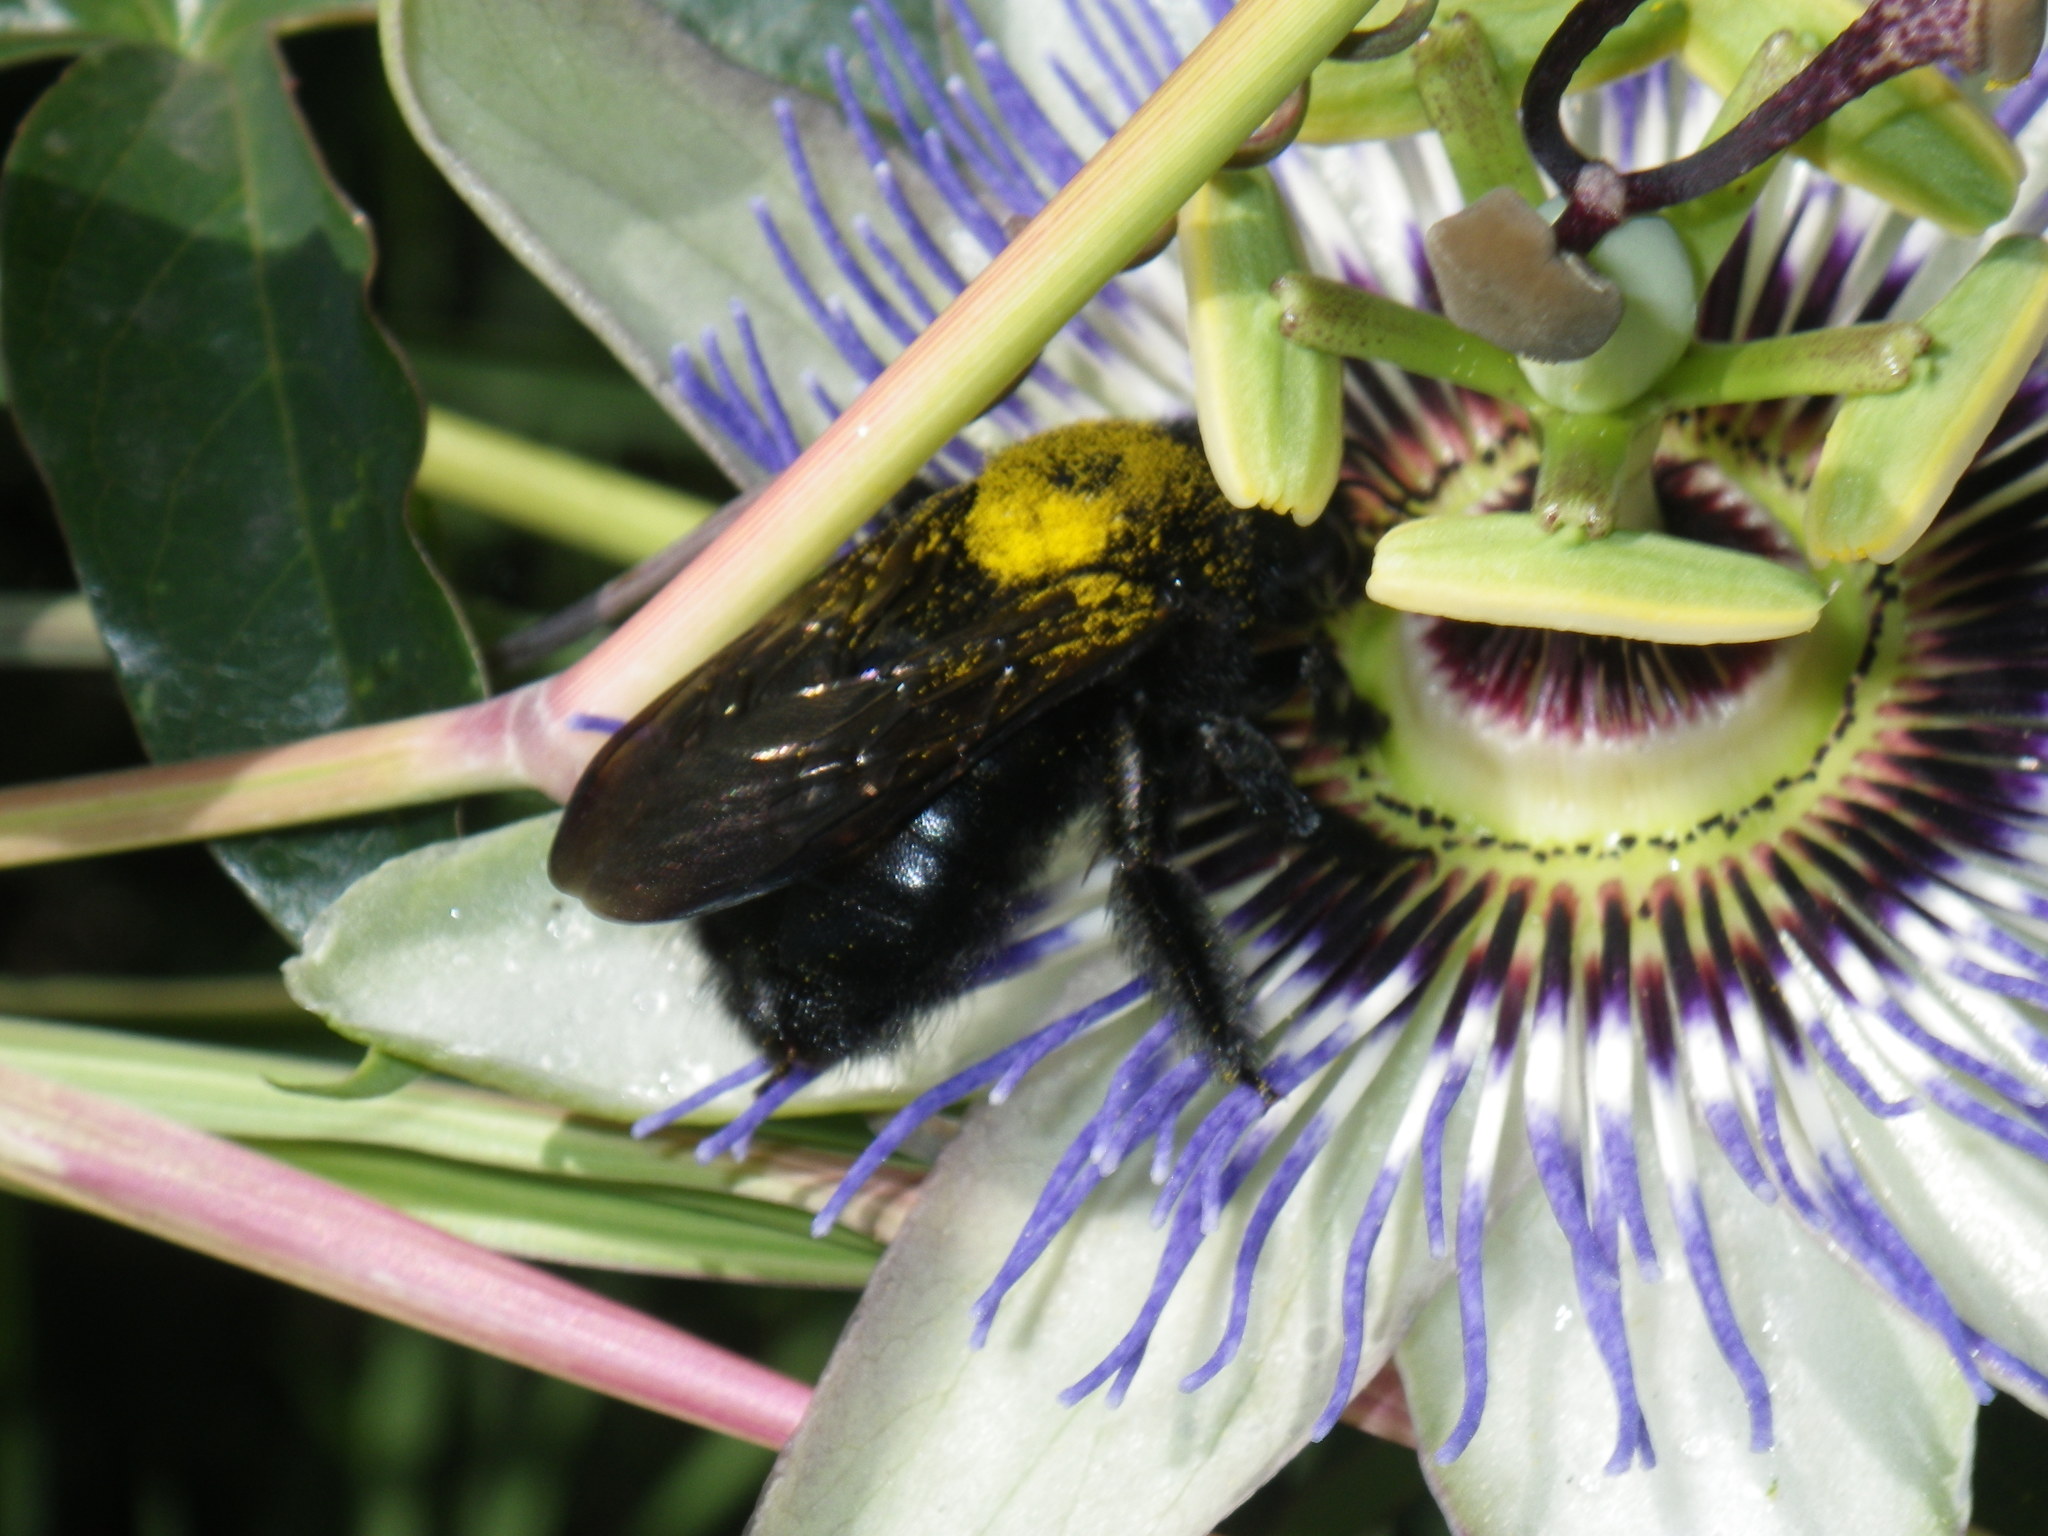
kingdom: Animalia
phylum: Arthropoda
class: Insecta
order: Hymenoptera
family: Apidae
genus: Xylocopa
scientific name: Xylocopa sonorina
